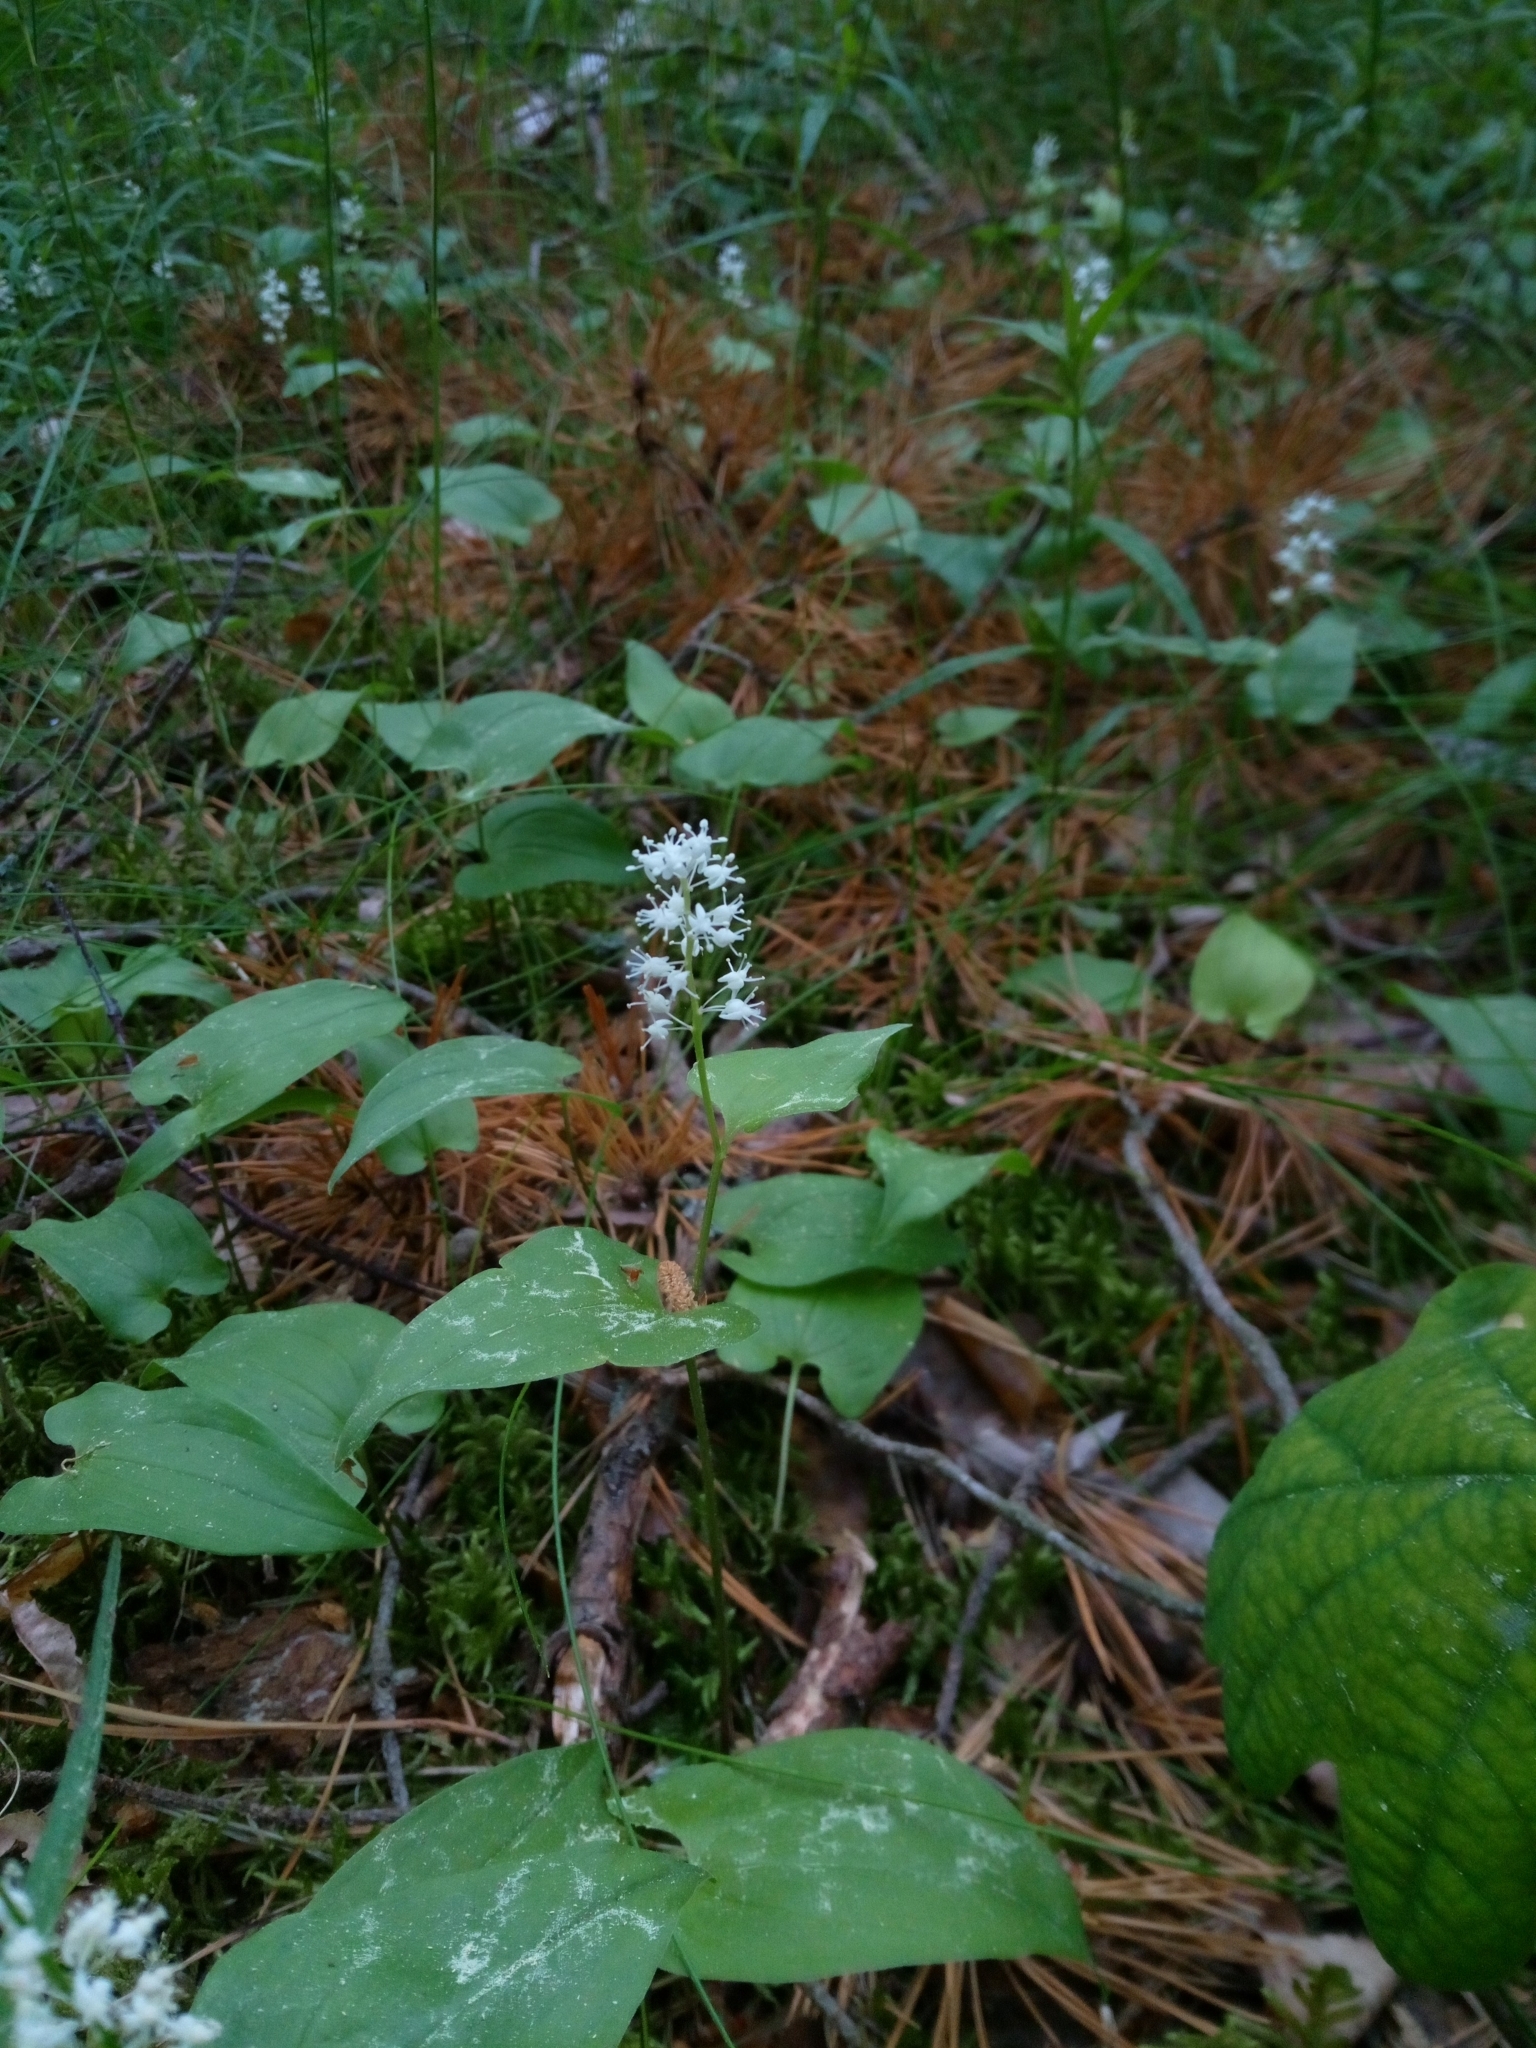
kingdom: Plantae
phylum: Tracheophyta
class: Liliopsida
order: Asparagales
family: Asparagaceae
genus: Maianthemum
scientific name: Maianthemum bifolium
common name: May lily
